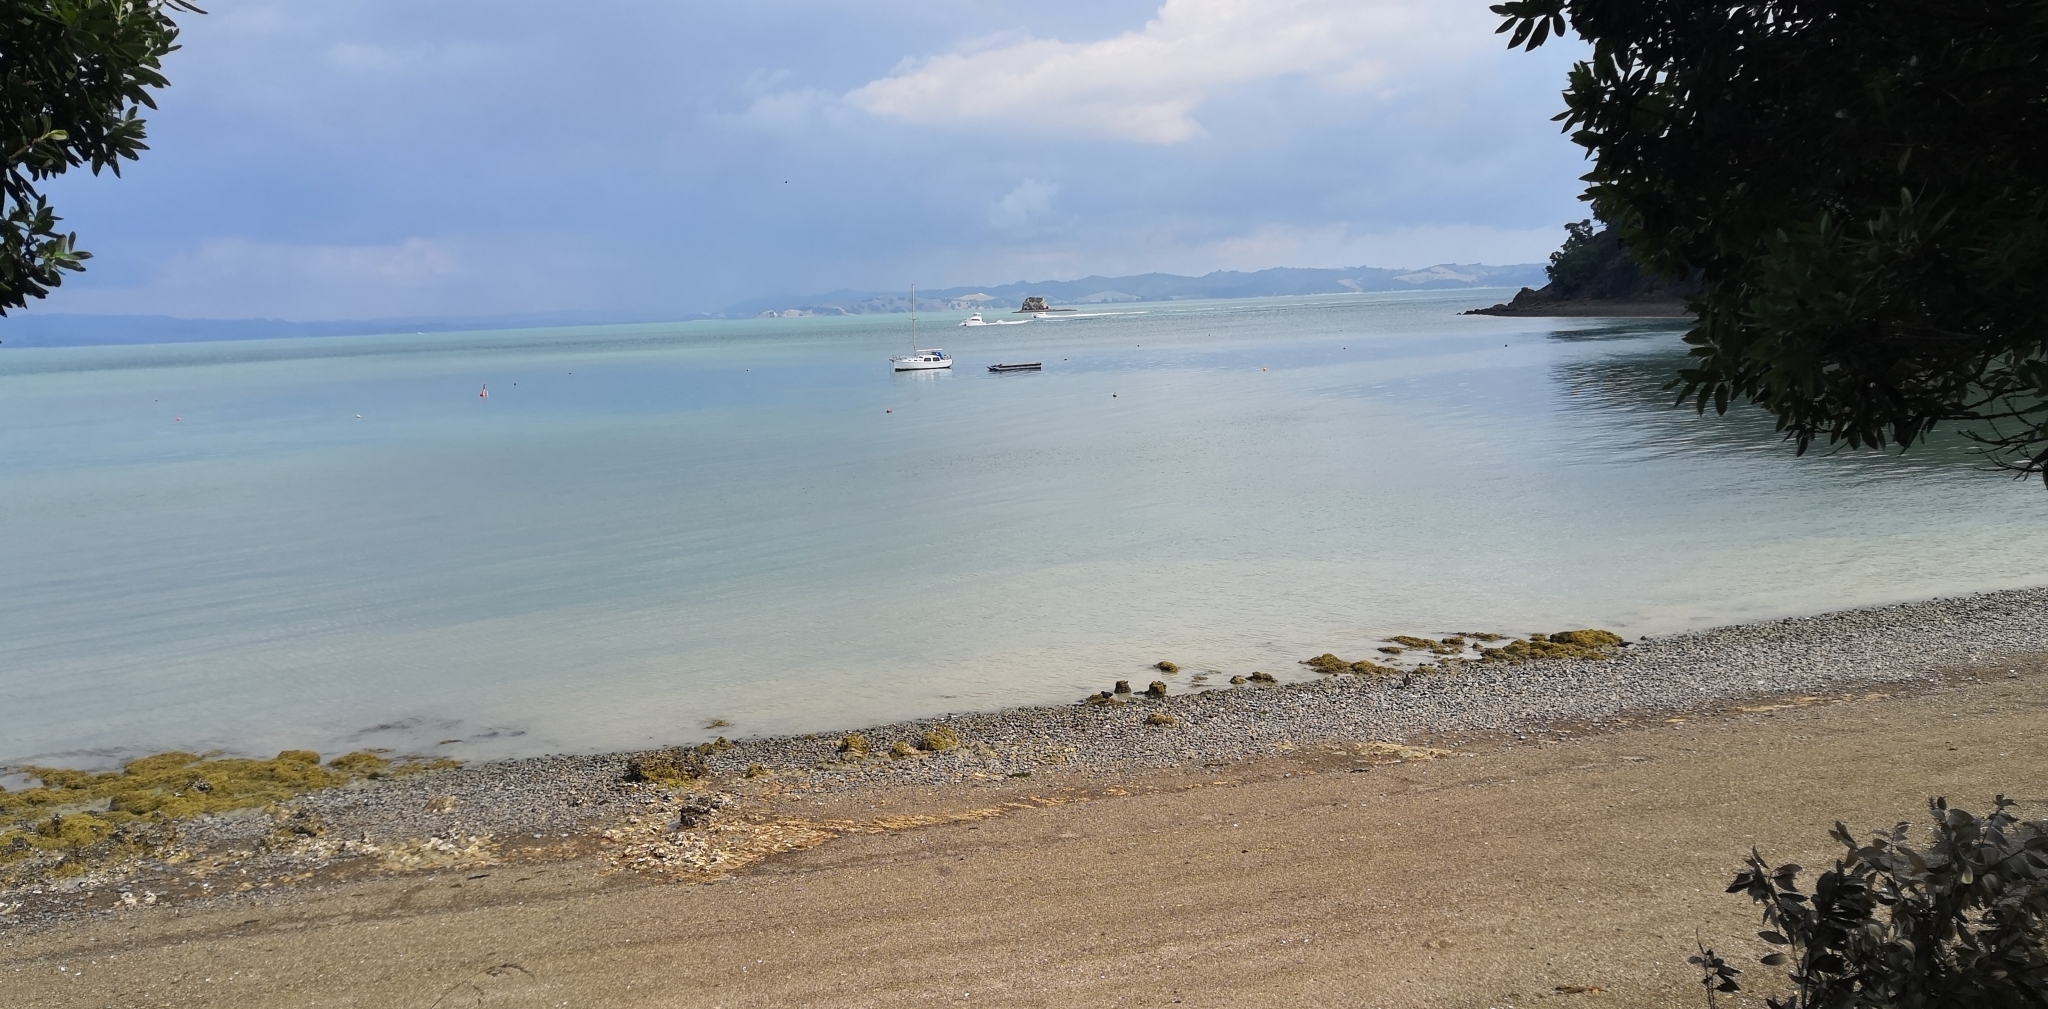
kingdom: Animalia
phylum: Chordata
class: Aves
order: Charadriiformes
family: Haematopodidae
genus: Haematopus
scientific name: Haematopus unicolor
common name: Variable oystercatcher
